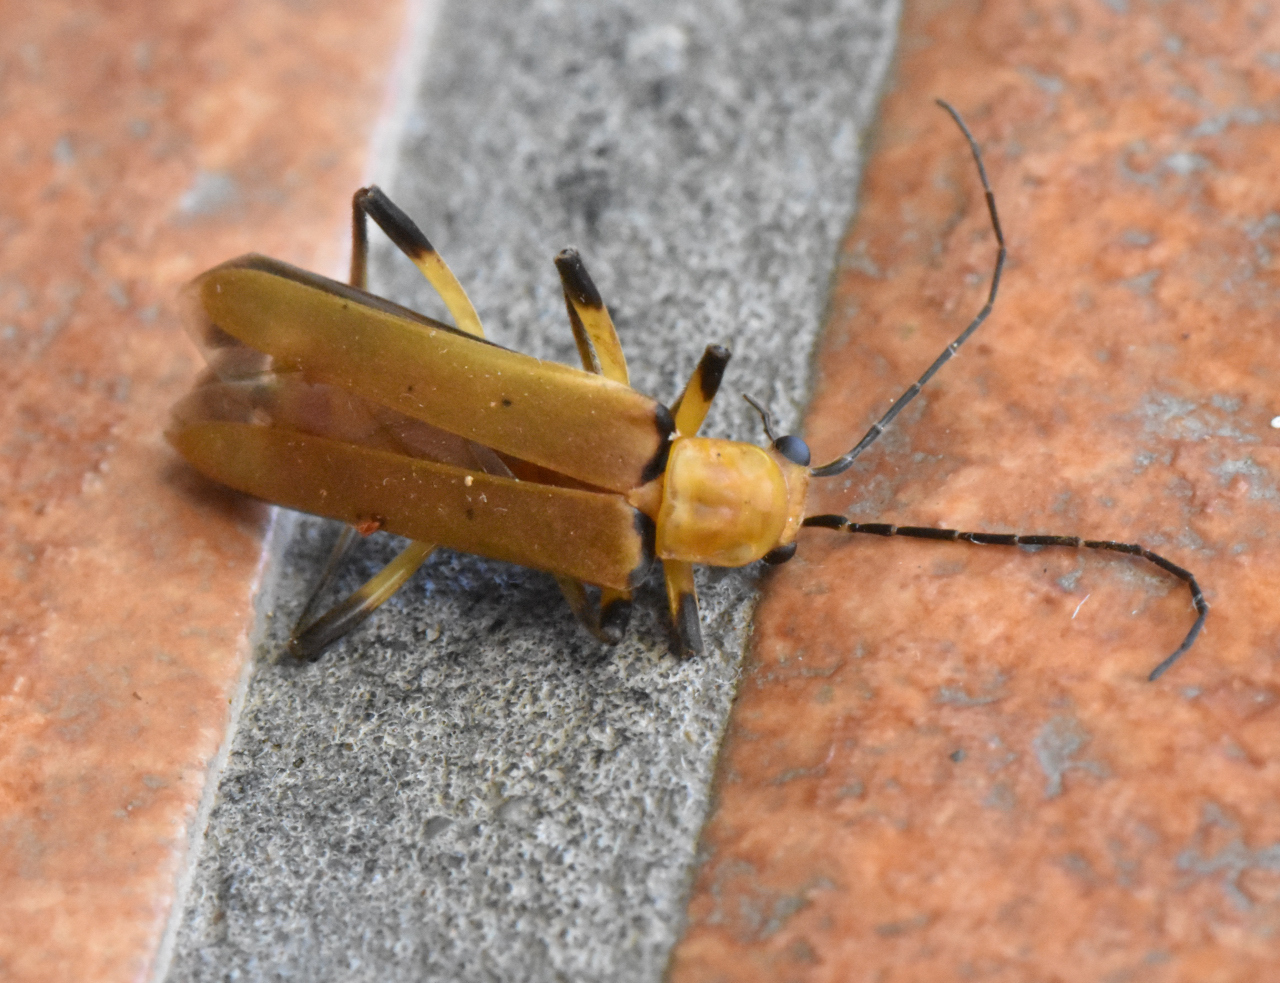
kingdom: Animalia
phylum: Arthropoda
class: Insecta
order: Coleoptera
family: Cantharidae
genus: Chauliognathus
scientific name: Chauliognathus
